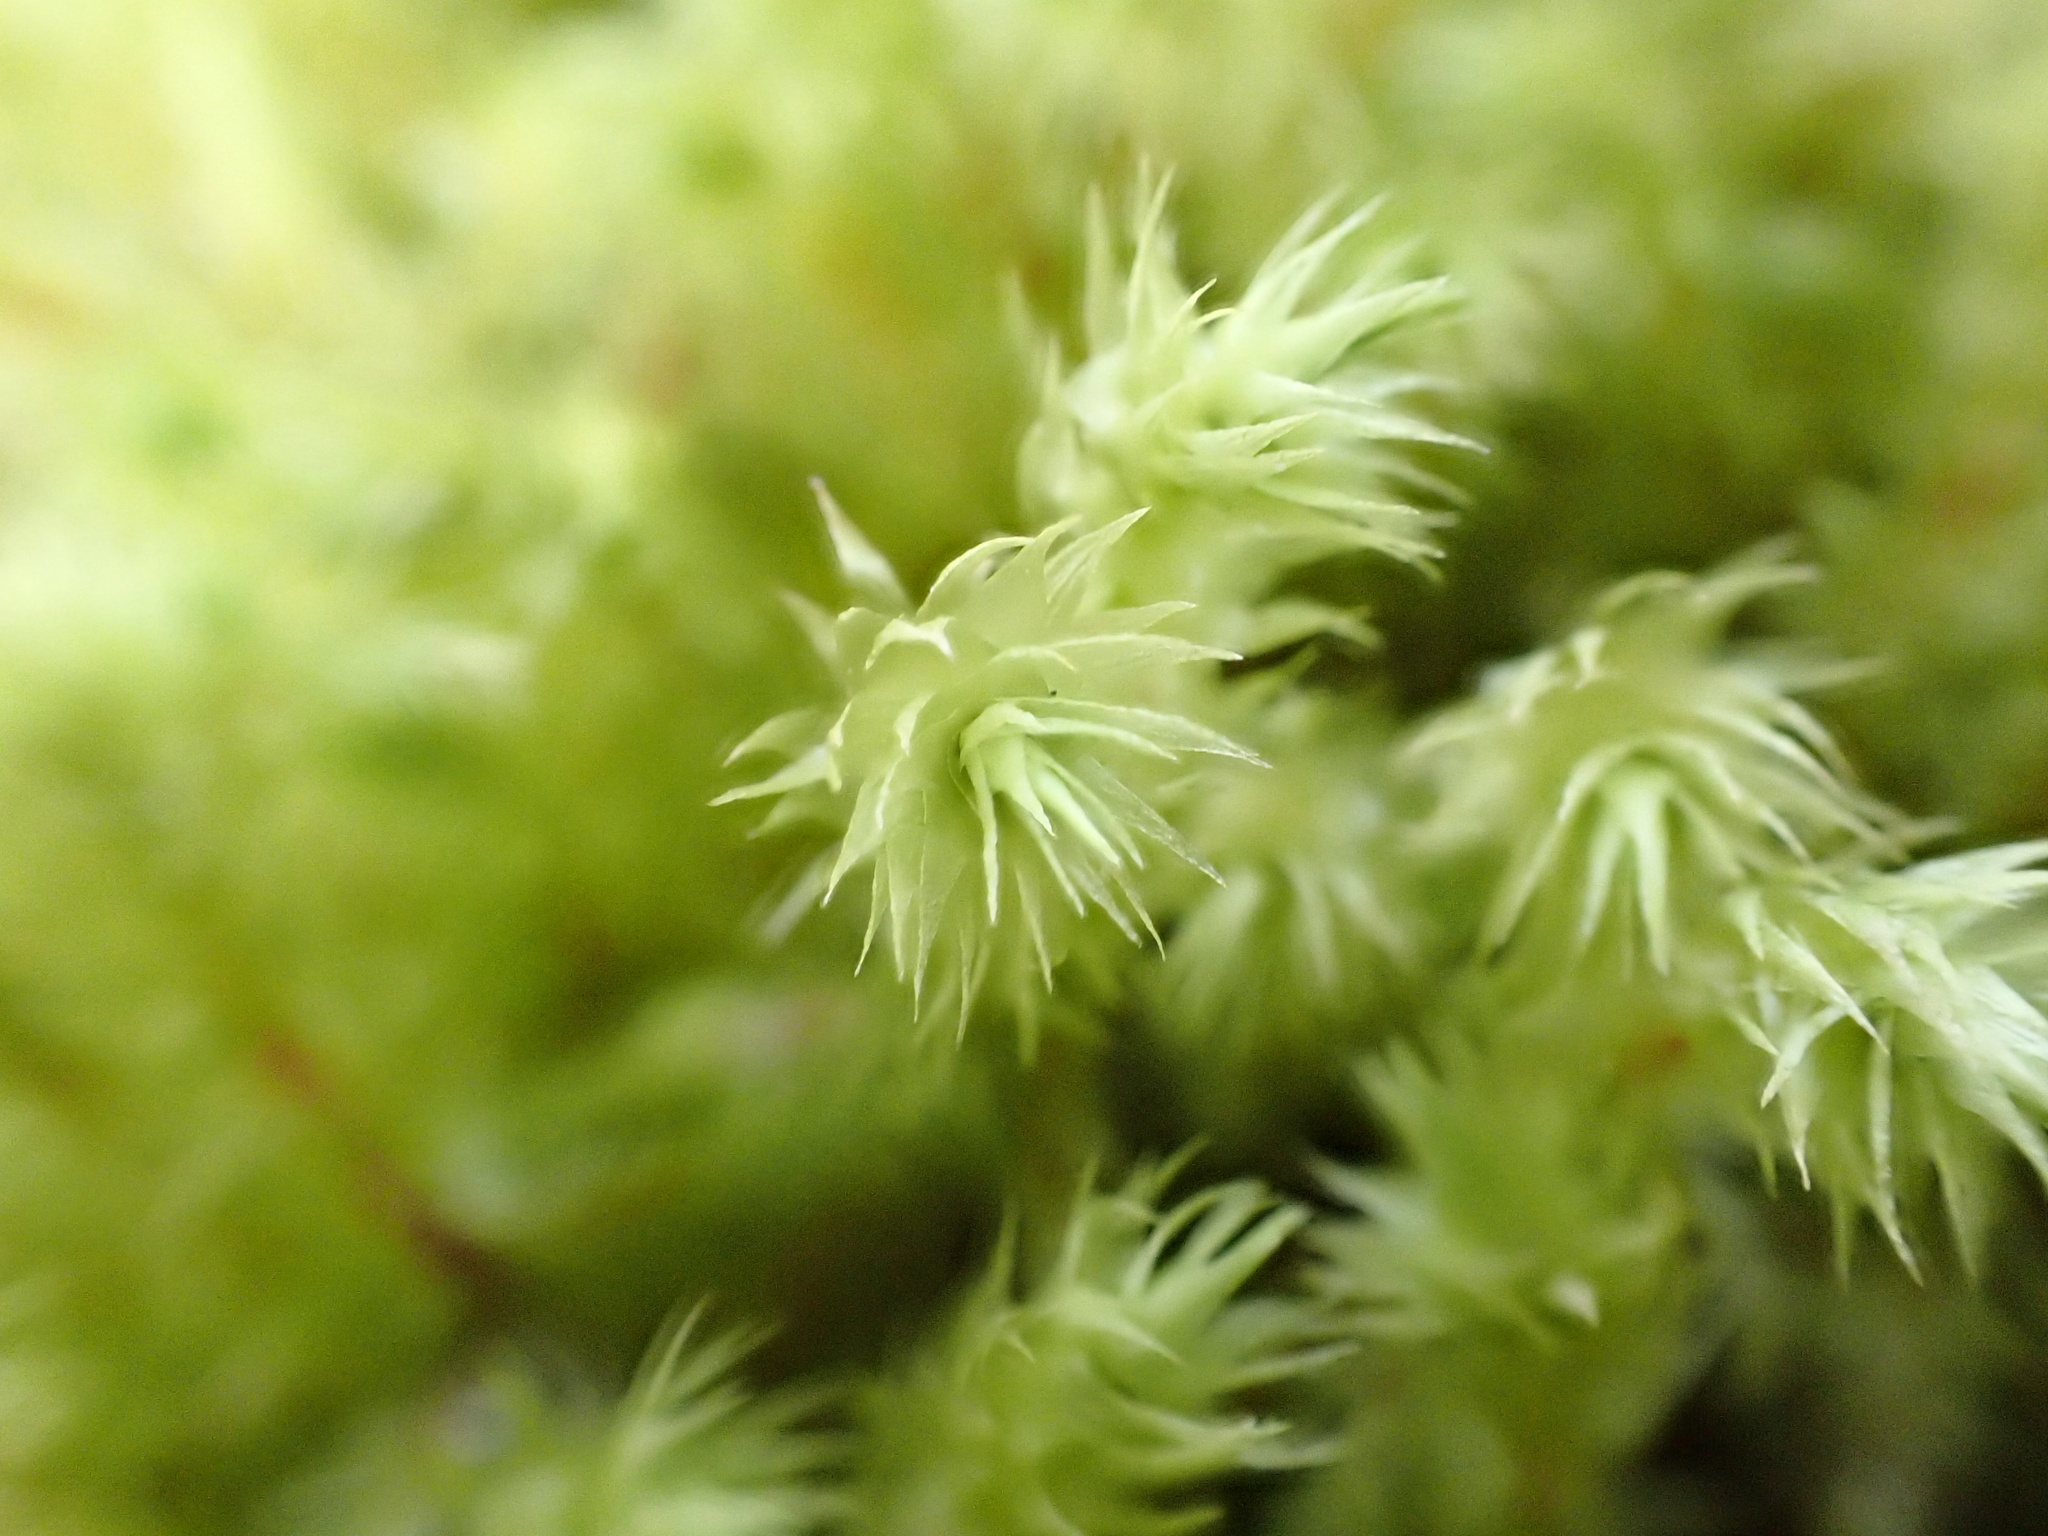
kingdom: Plantae
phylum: Bryophyta
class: Bryopsida
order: Hypnales
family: Hylocomiaceae
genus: Hylocomiadelphus
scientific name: Hylocomiadelphus triquetrus
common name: Rough goose neck moss
